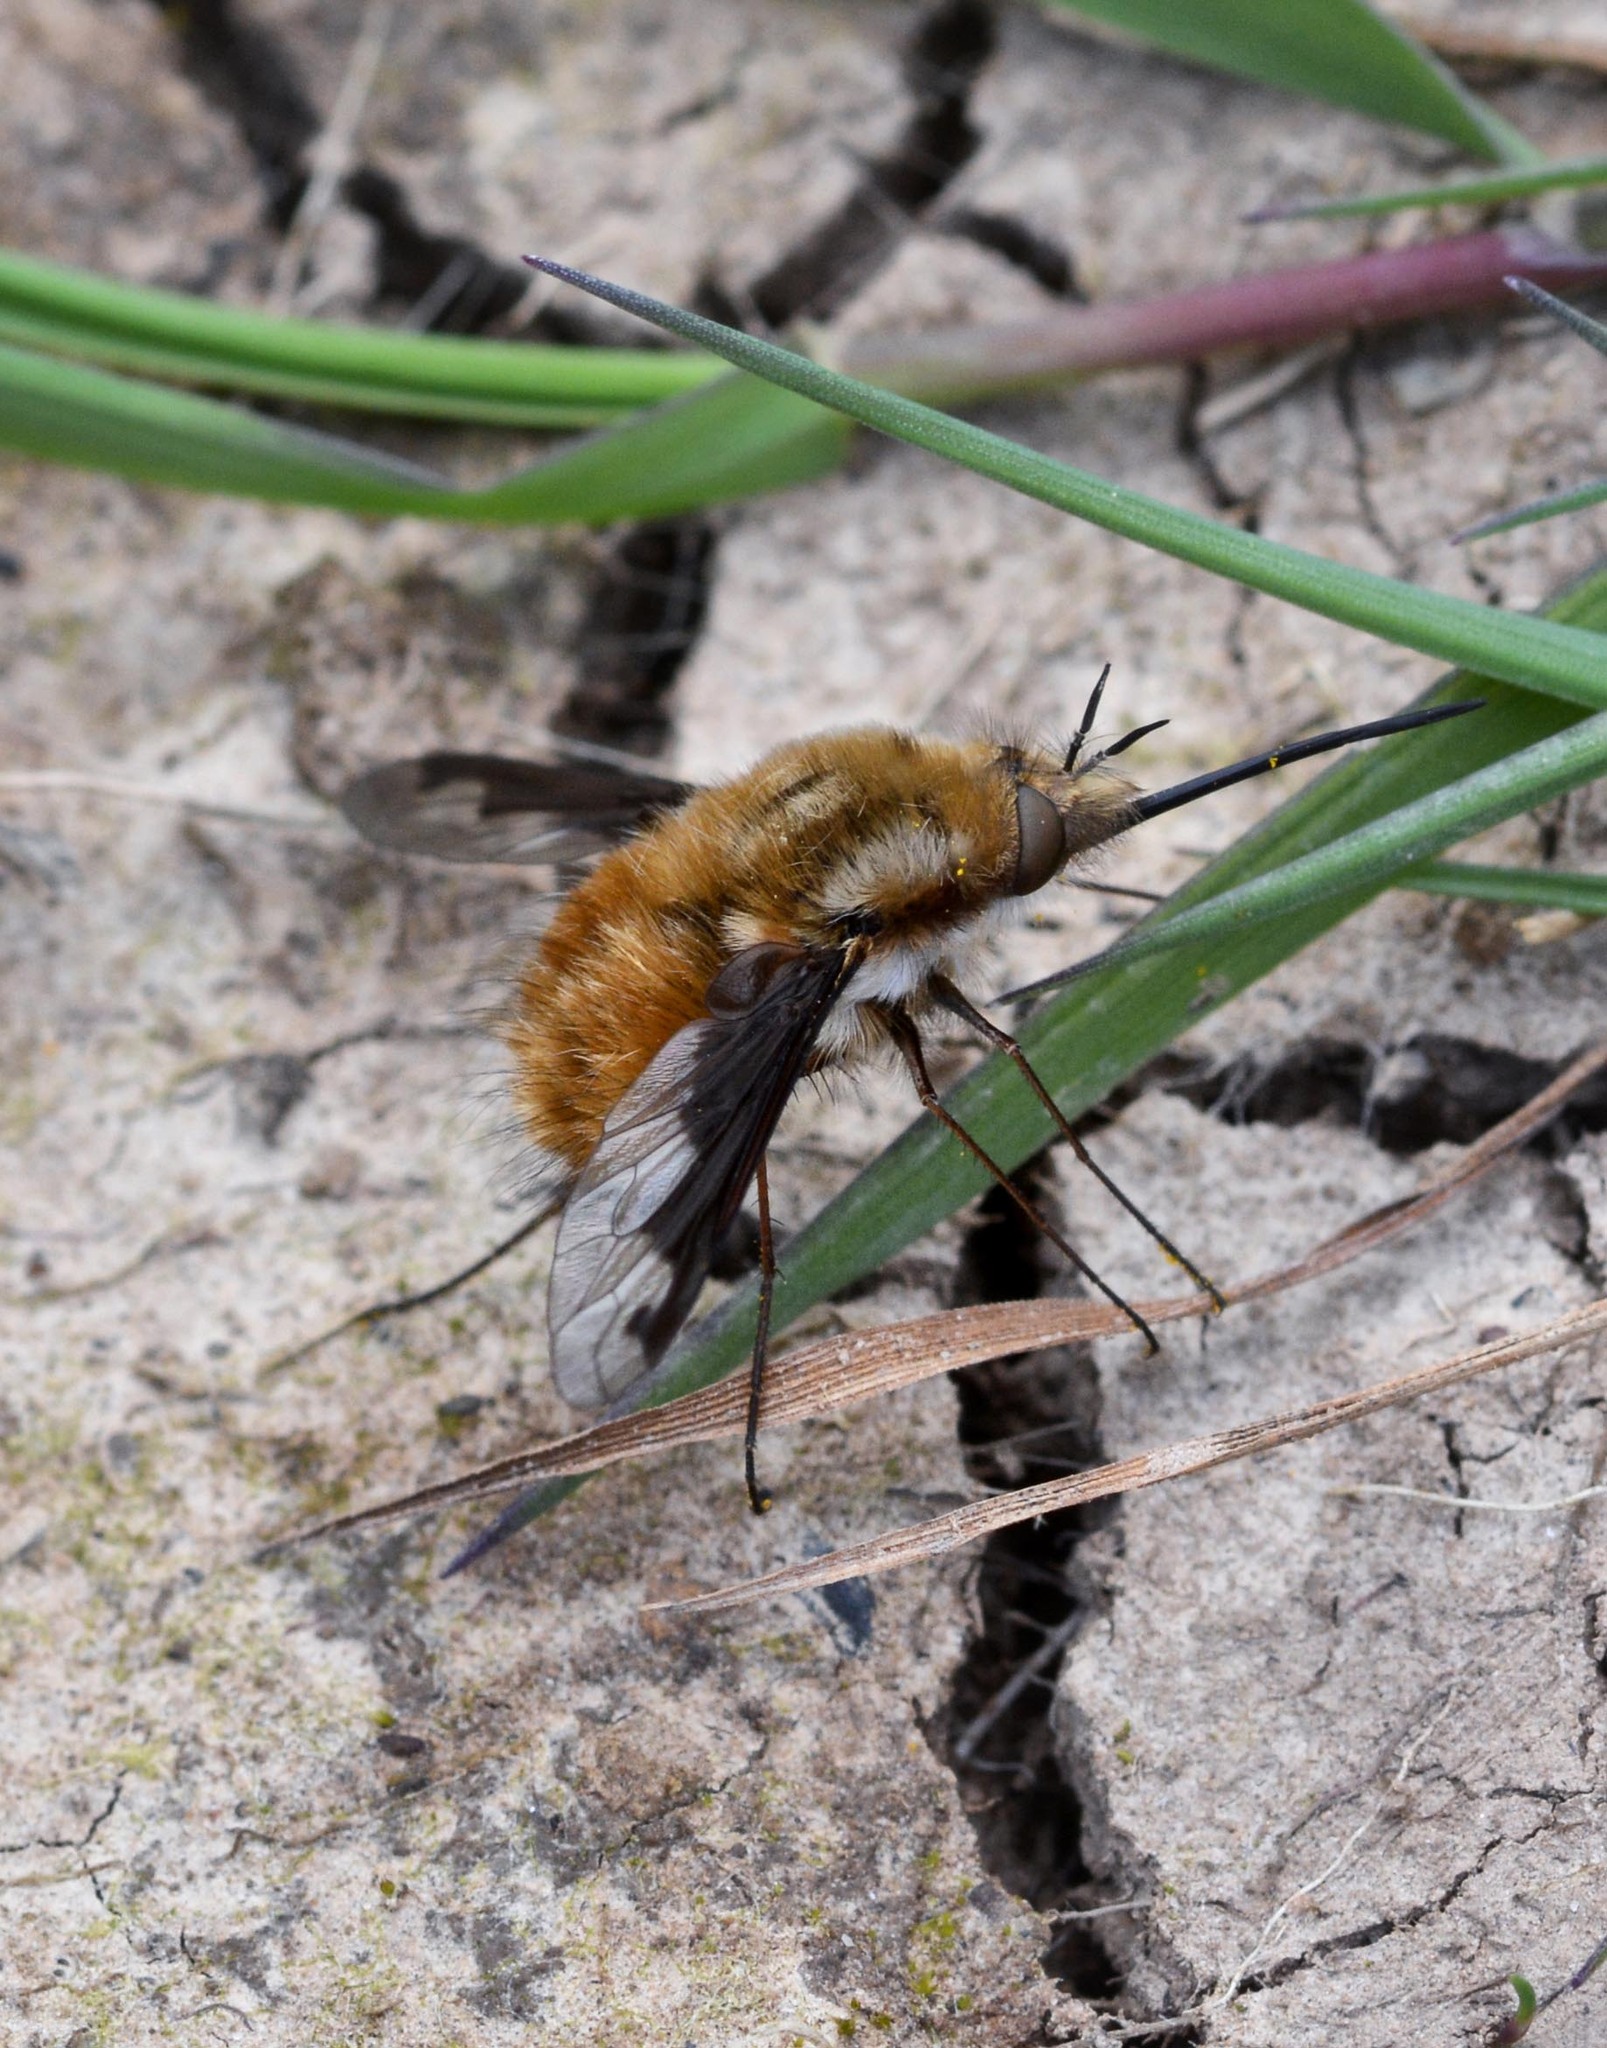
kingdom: Animalia
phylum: Arthropoda
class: Insecta
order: Diptera
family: Bombyliidae
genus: Bombylius
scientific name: Bombylius major
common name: Bee fly
